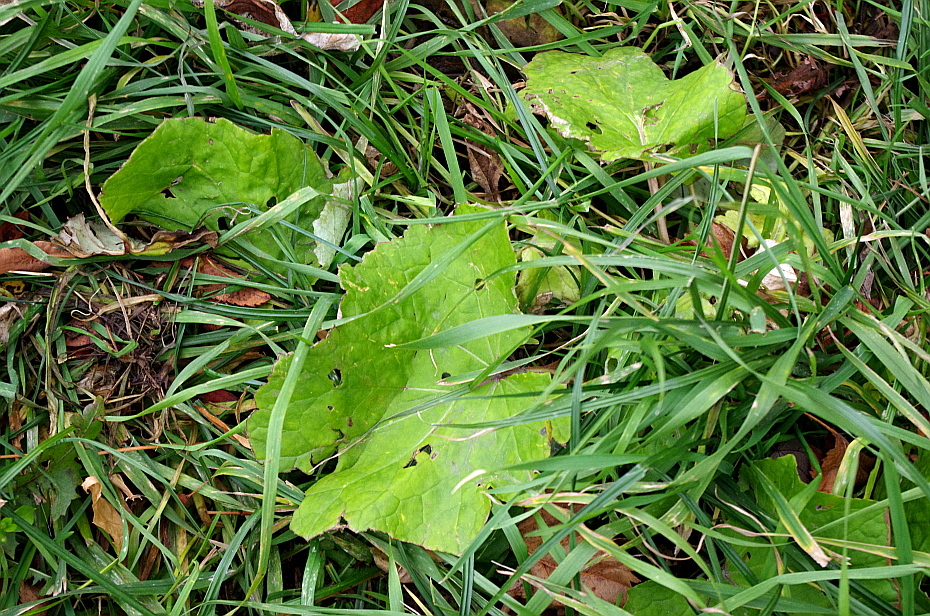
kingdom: Plantae
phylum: Tracheophyta
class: Magnoliopsida
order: Asterales
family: Asteraceae
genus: Tussilago
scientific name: Tussilago farfara
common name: Coltsfoot
